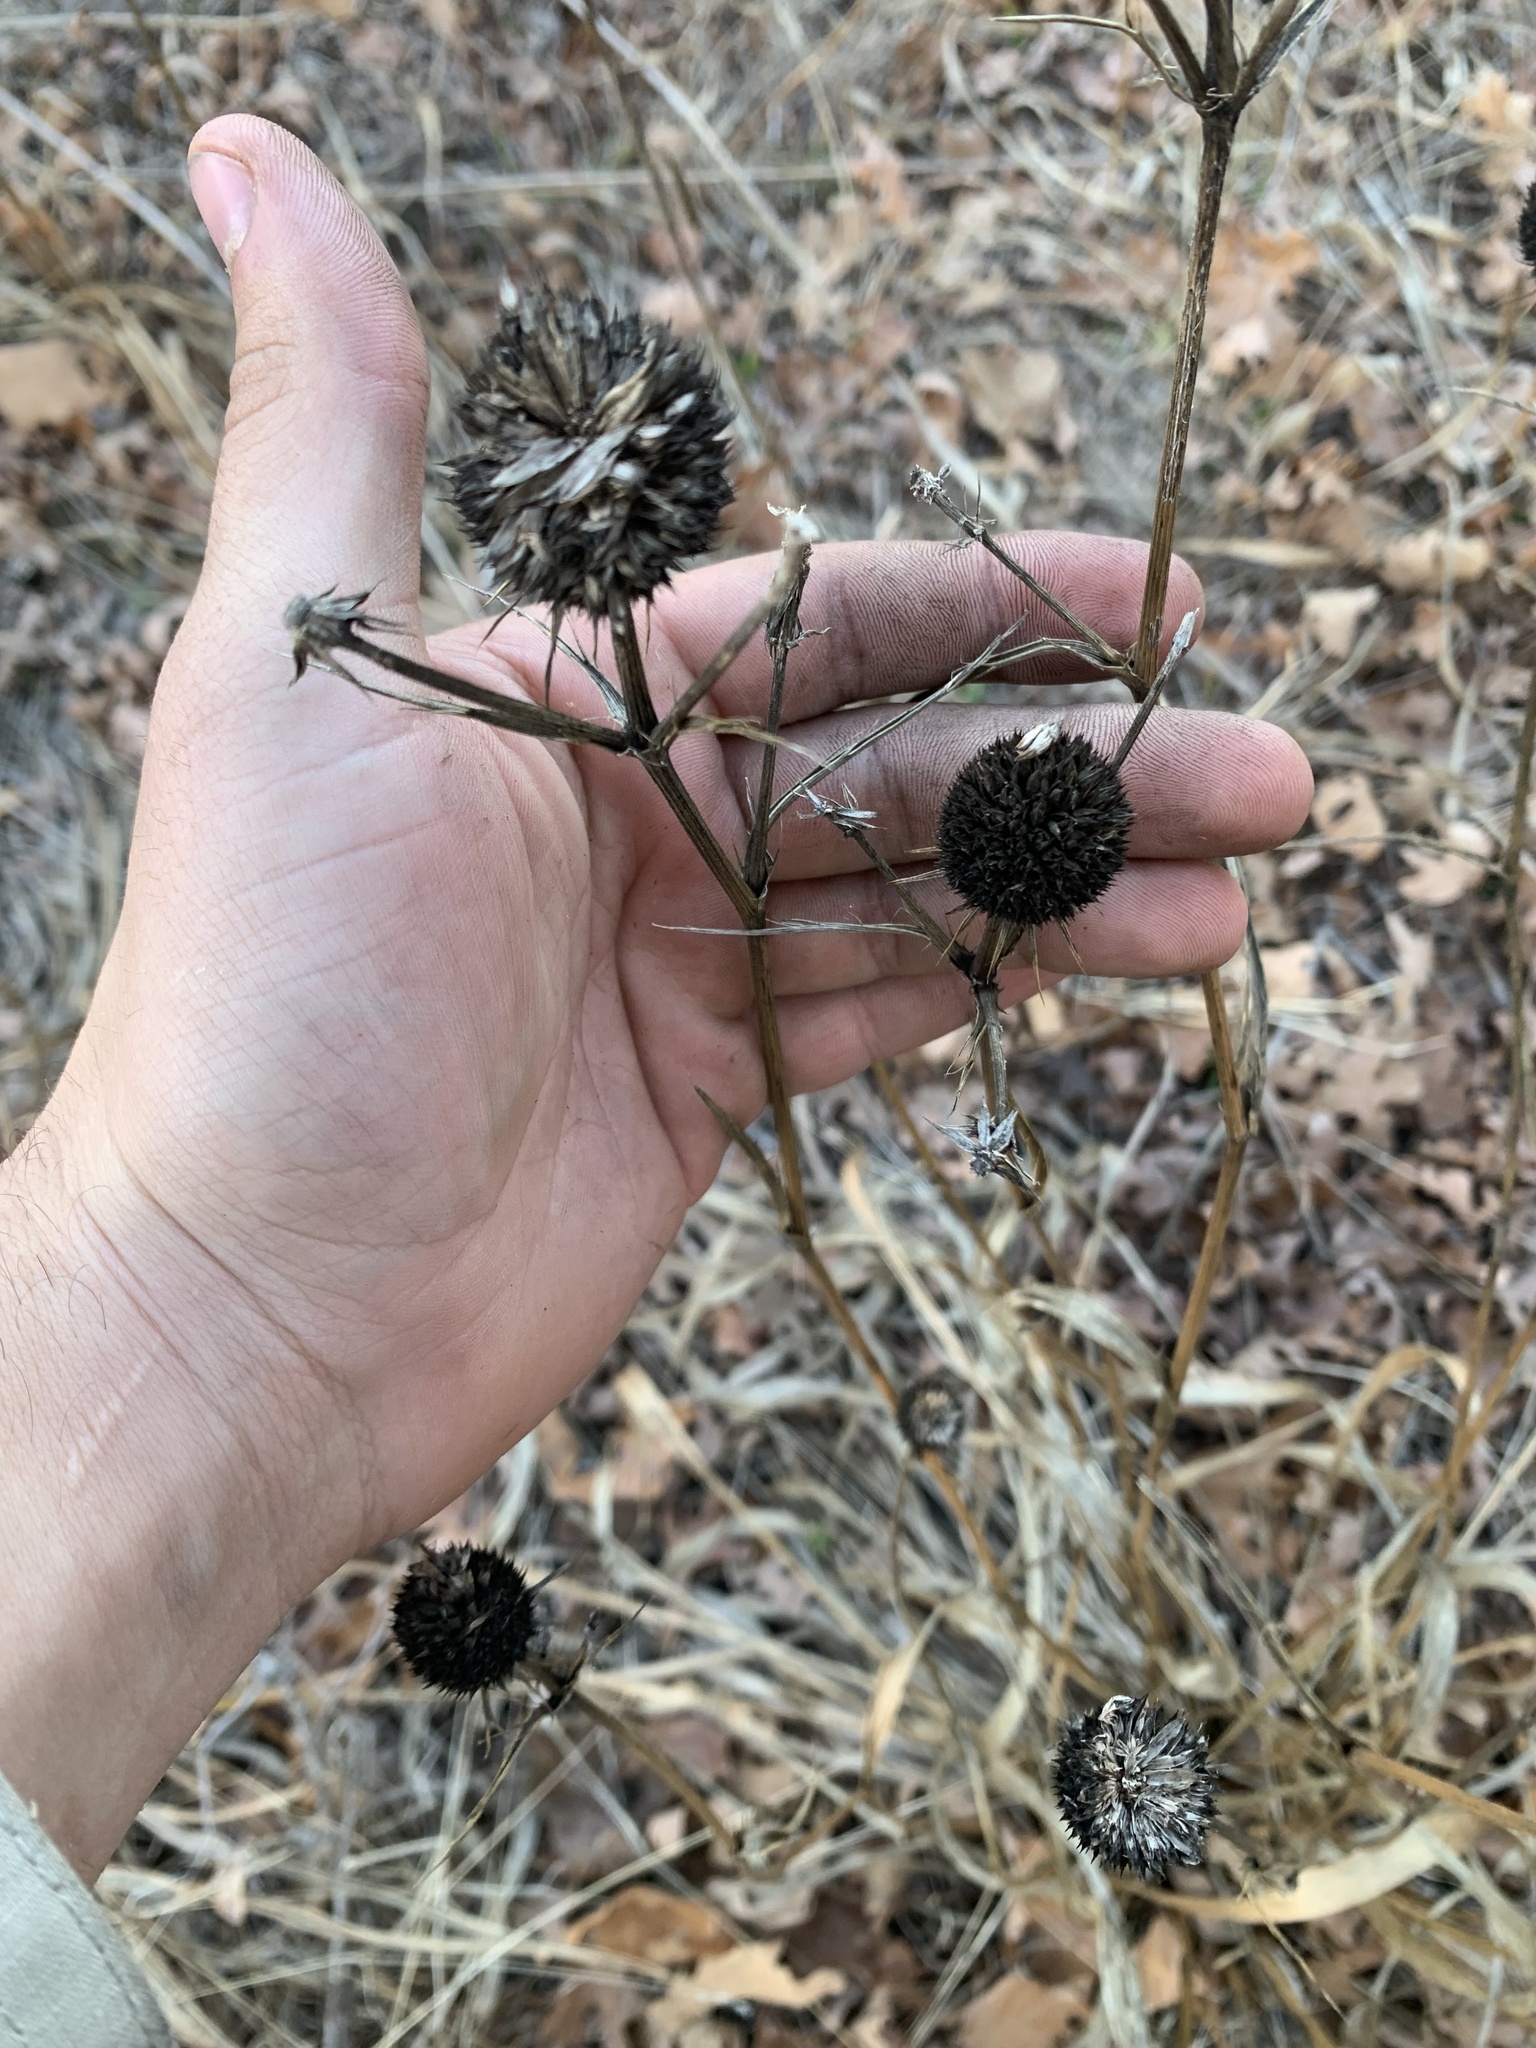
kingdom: Plantae
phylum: Tracheophyta
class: Magnoliopsida
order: Apiales
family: Apiaceae
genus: Eryngium
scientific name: Eryngium yuccifolium
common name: Button eryngo
